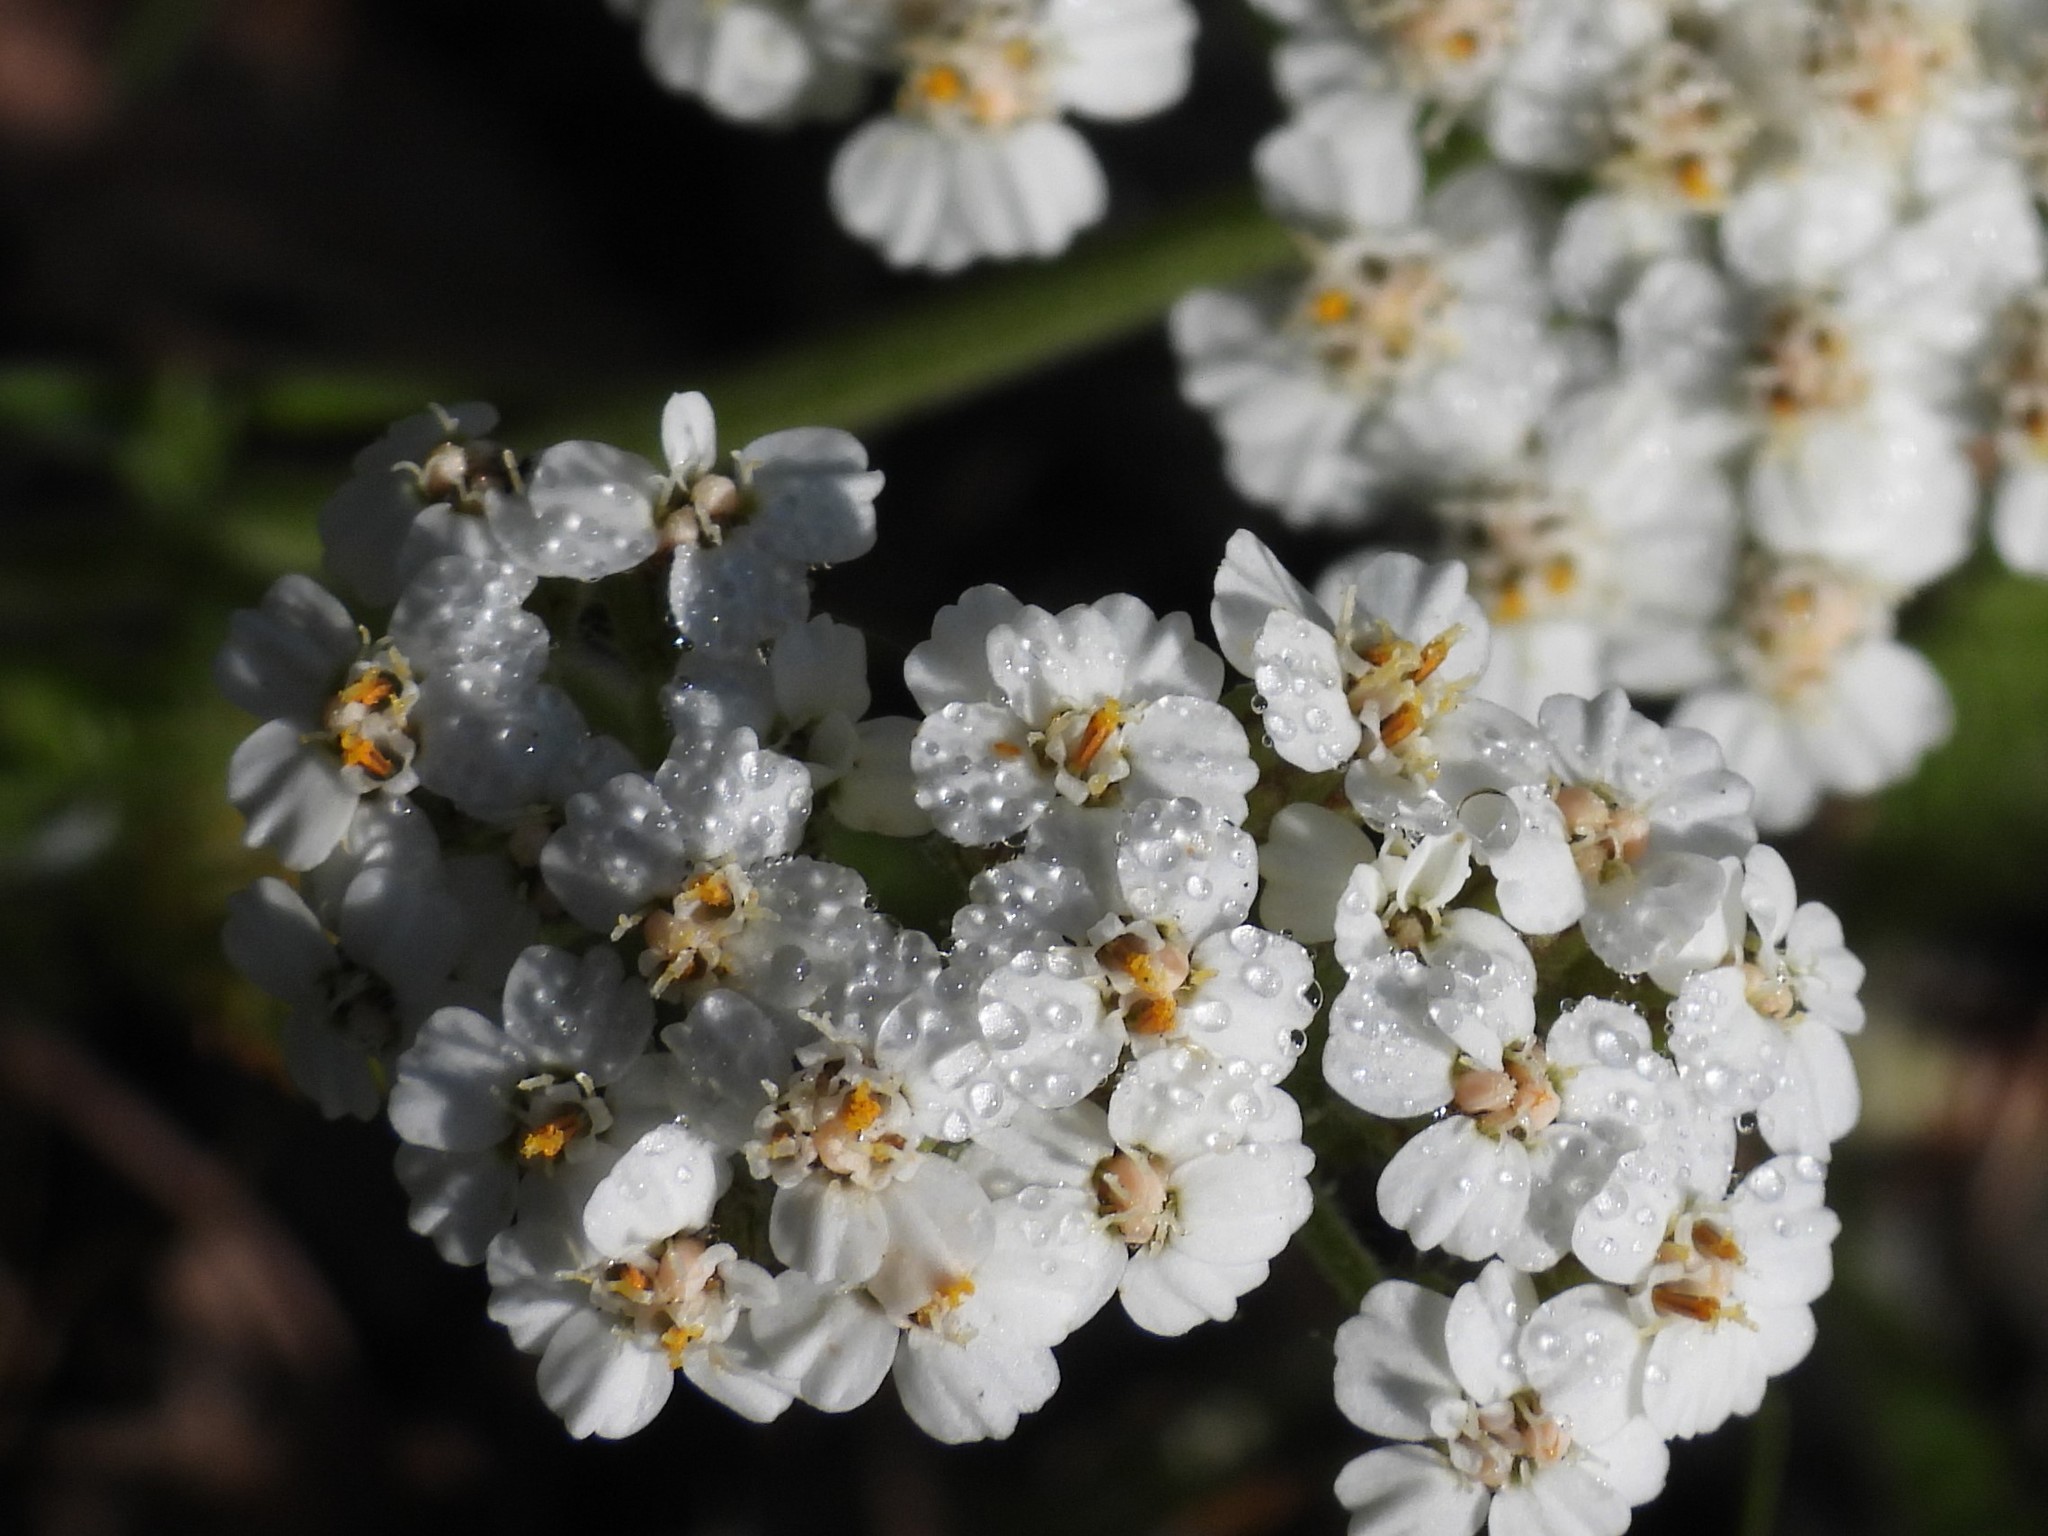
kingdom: Plantae
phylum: Tracheophyta
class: Magnoliopsida
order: Asterales
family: Asteraceae
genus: Achillea
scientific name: Achillea millefolium
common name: Yarrow
